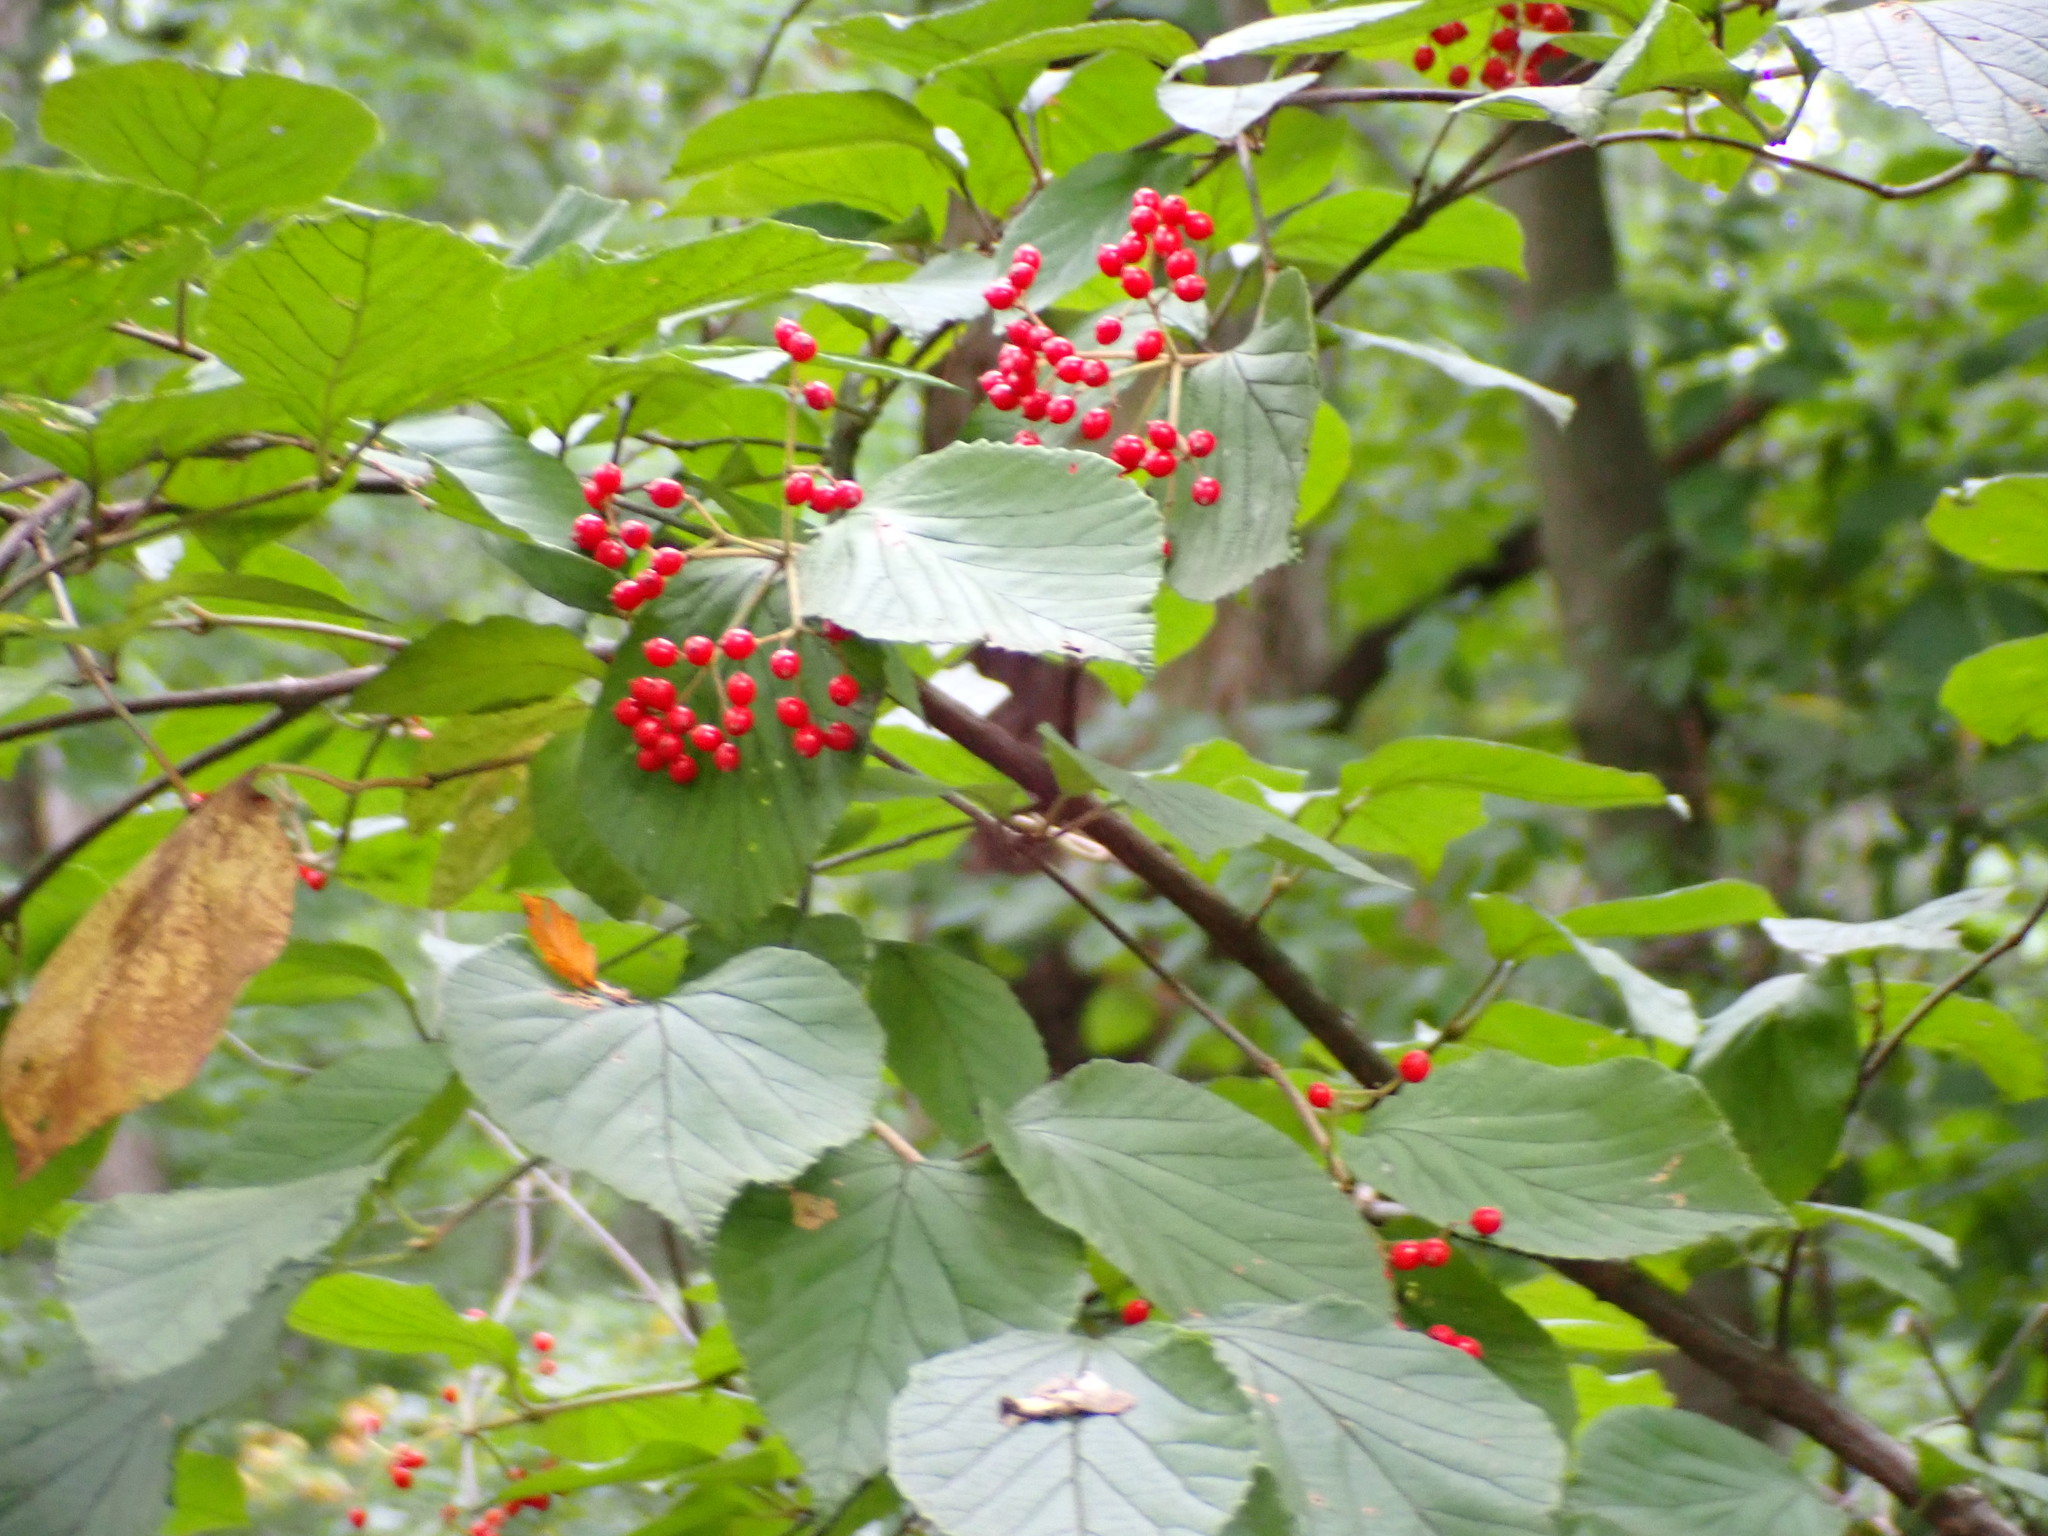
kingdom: Plantae
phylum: Tracheophyta
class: Magnoliopsida
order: Dipsacales
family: Viburnaceae
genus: Viburnum
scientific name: Viburnum dilatatum
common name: Linden arrowwood
